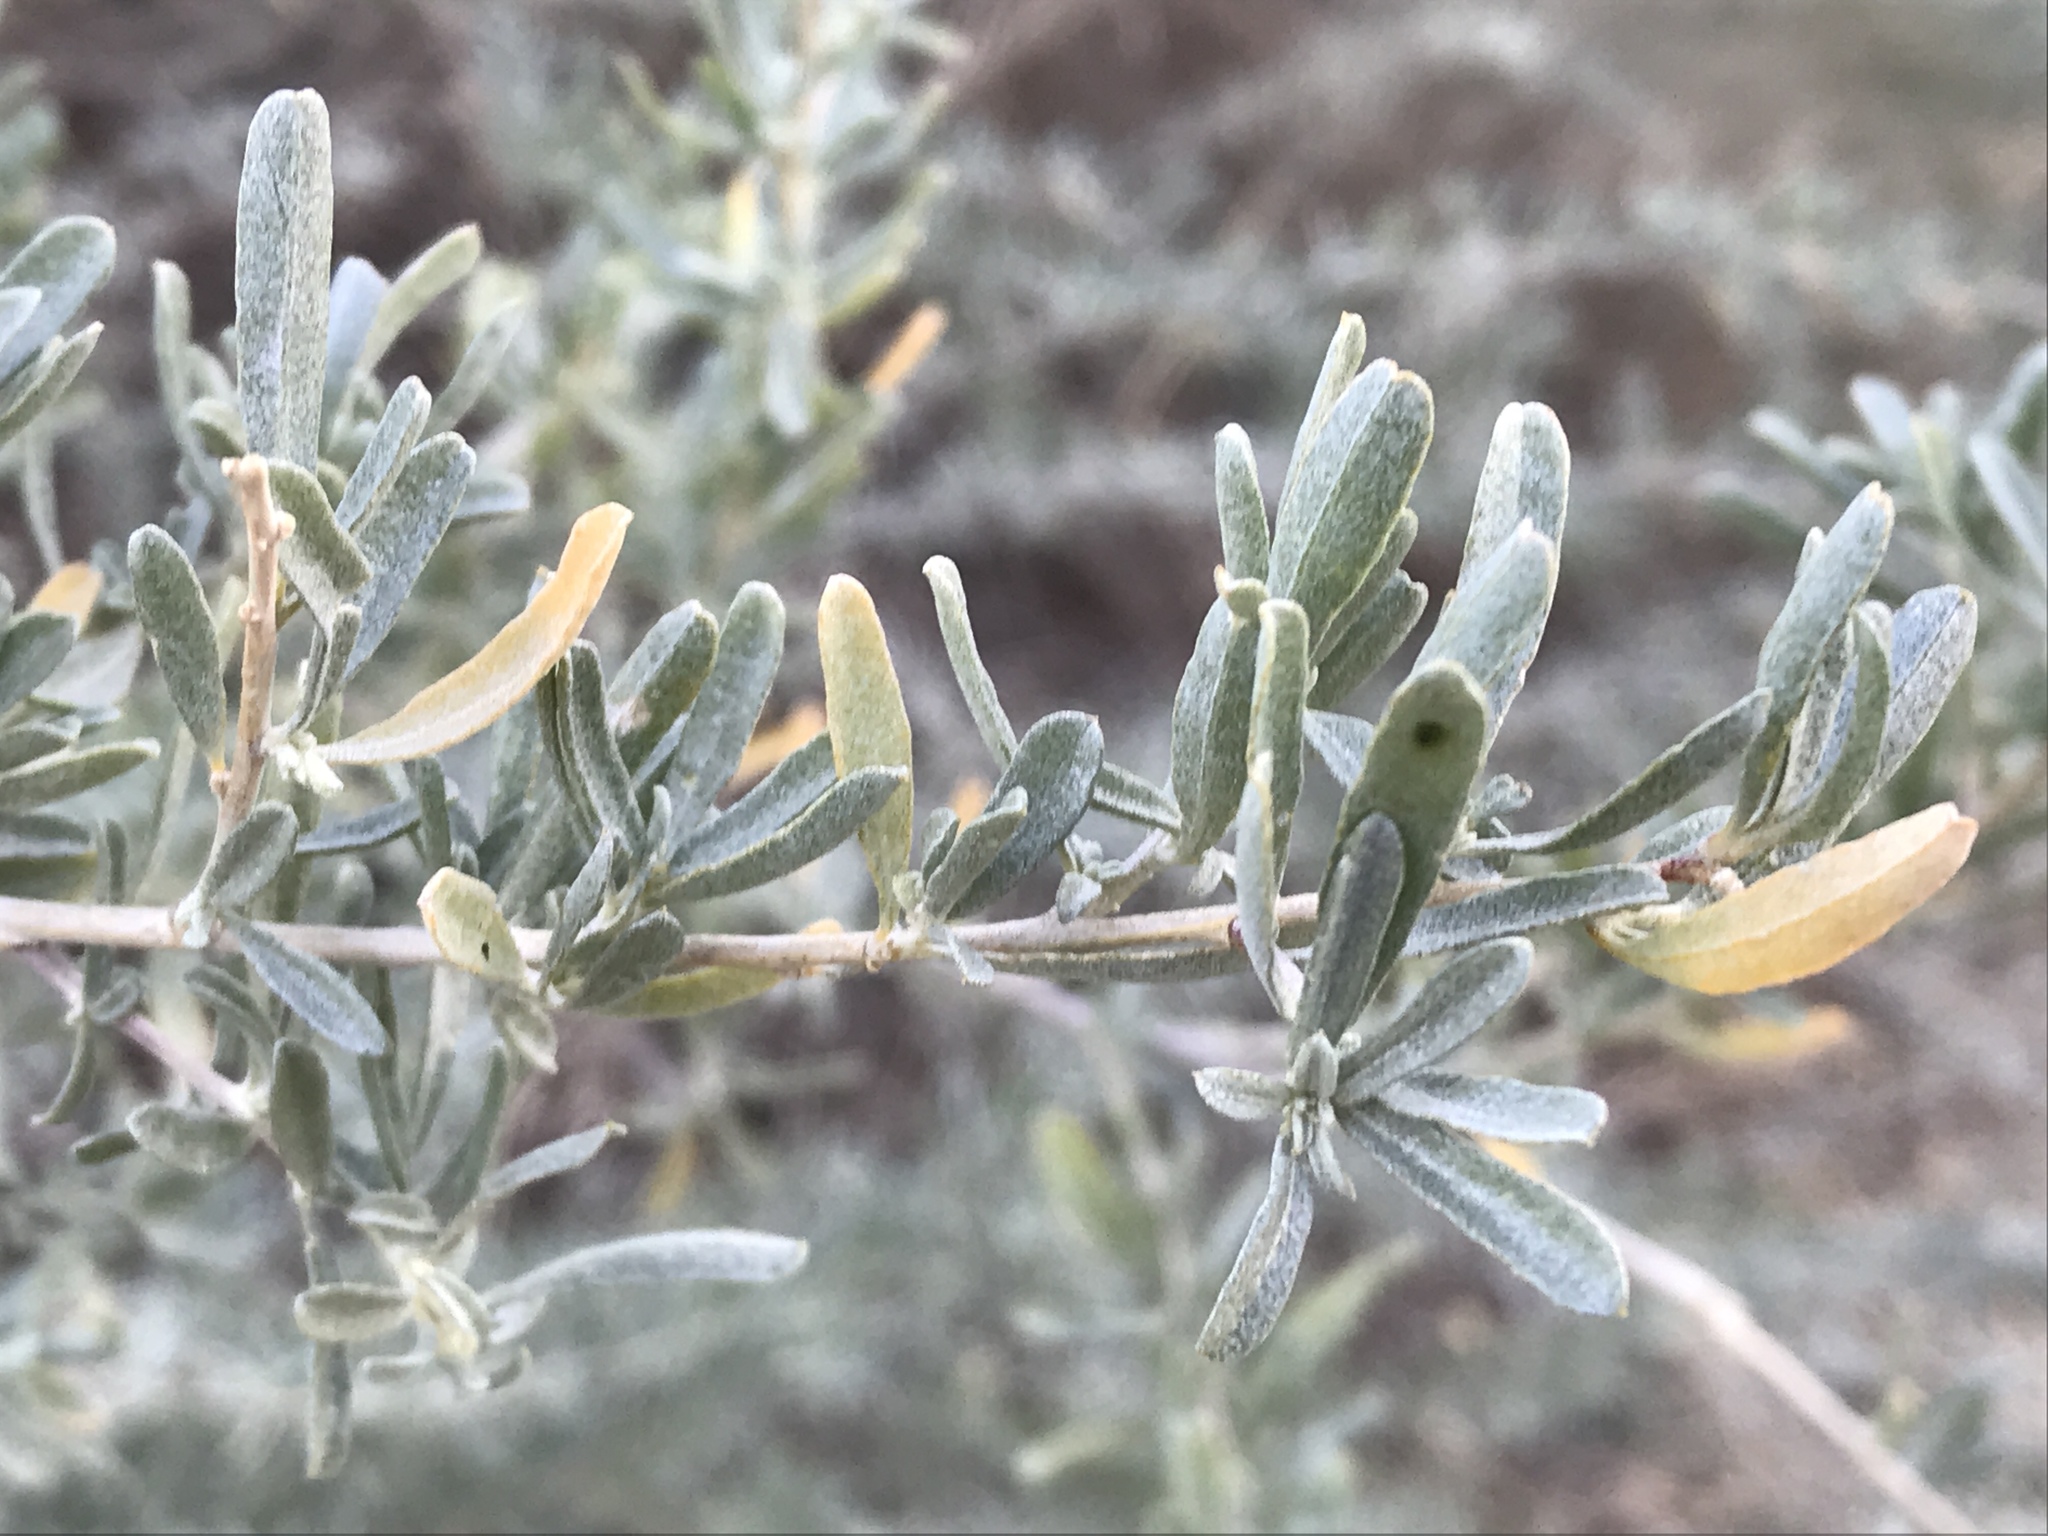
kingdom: Plantae
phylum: Tracheophyta
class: Magnoliopsida
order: Caryophyllales
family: Amaranthaceae
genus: Atriplex
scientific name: Atriplex canescens
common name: Four-wing saltbush
